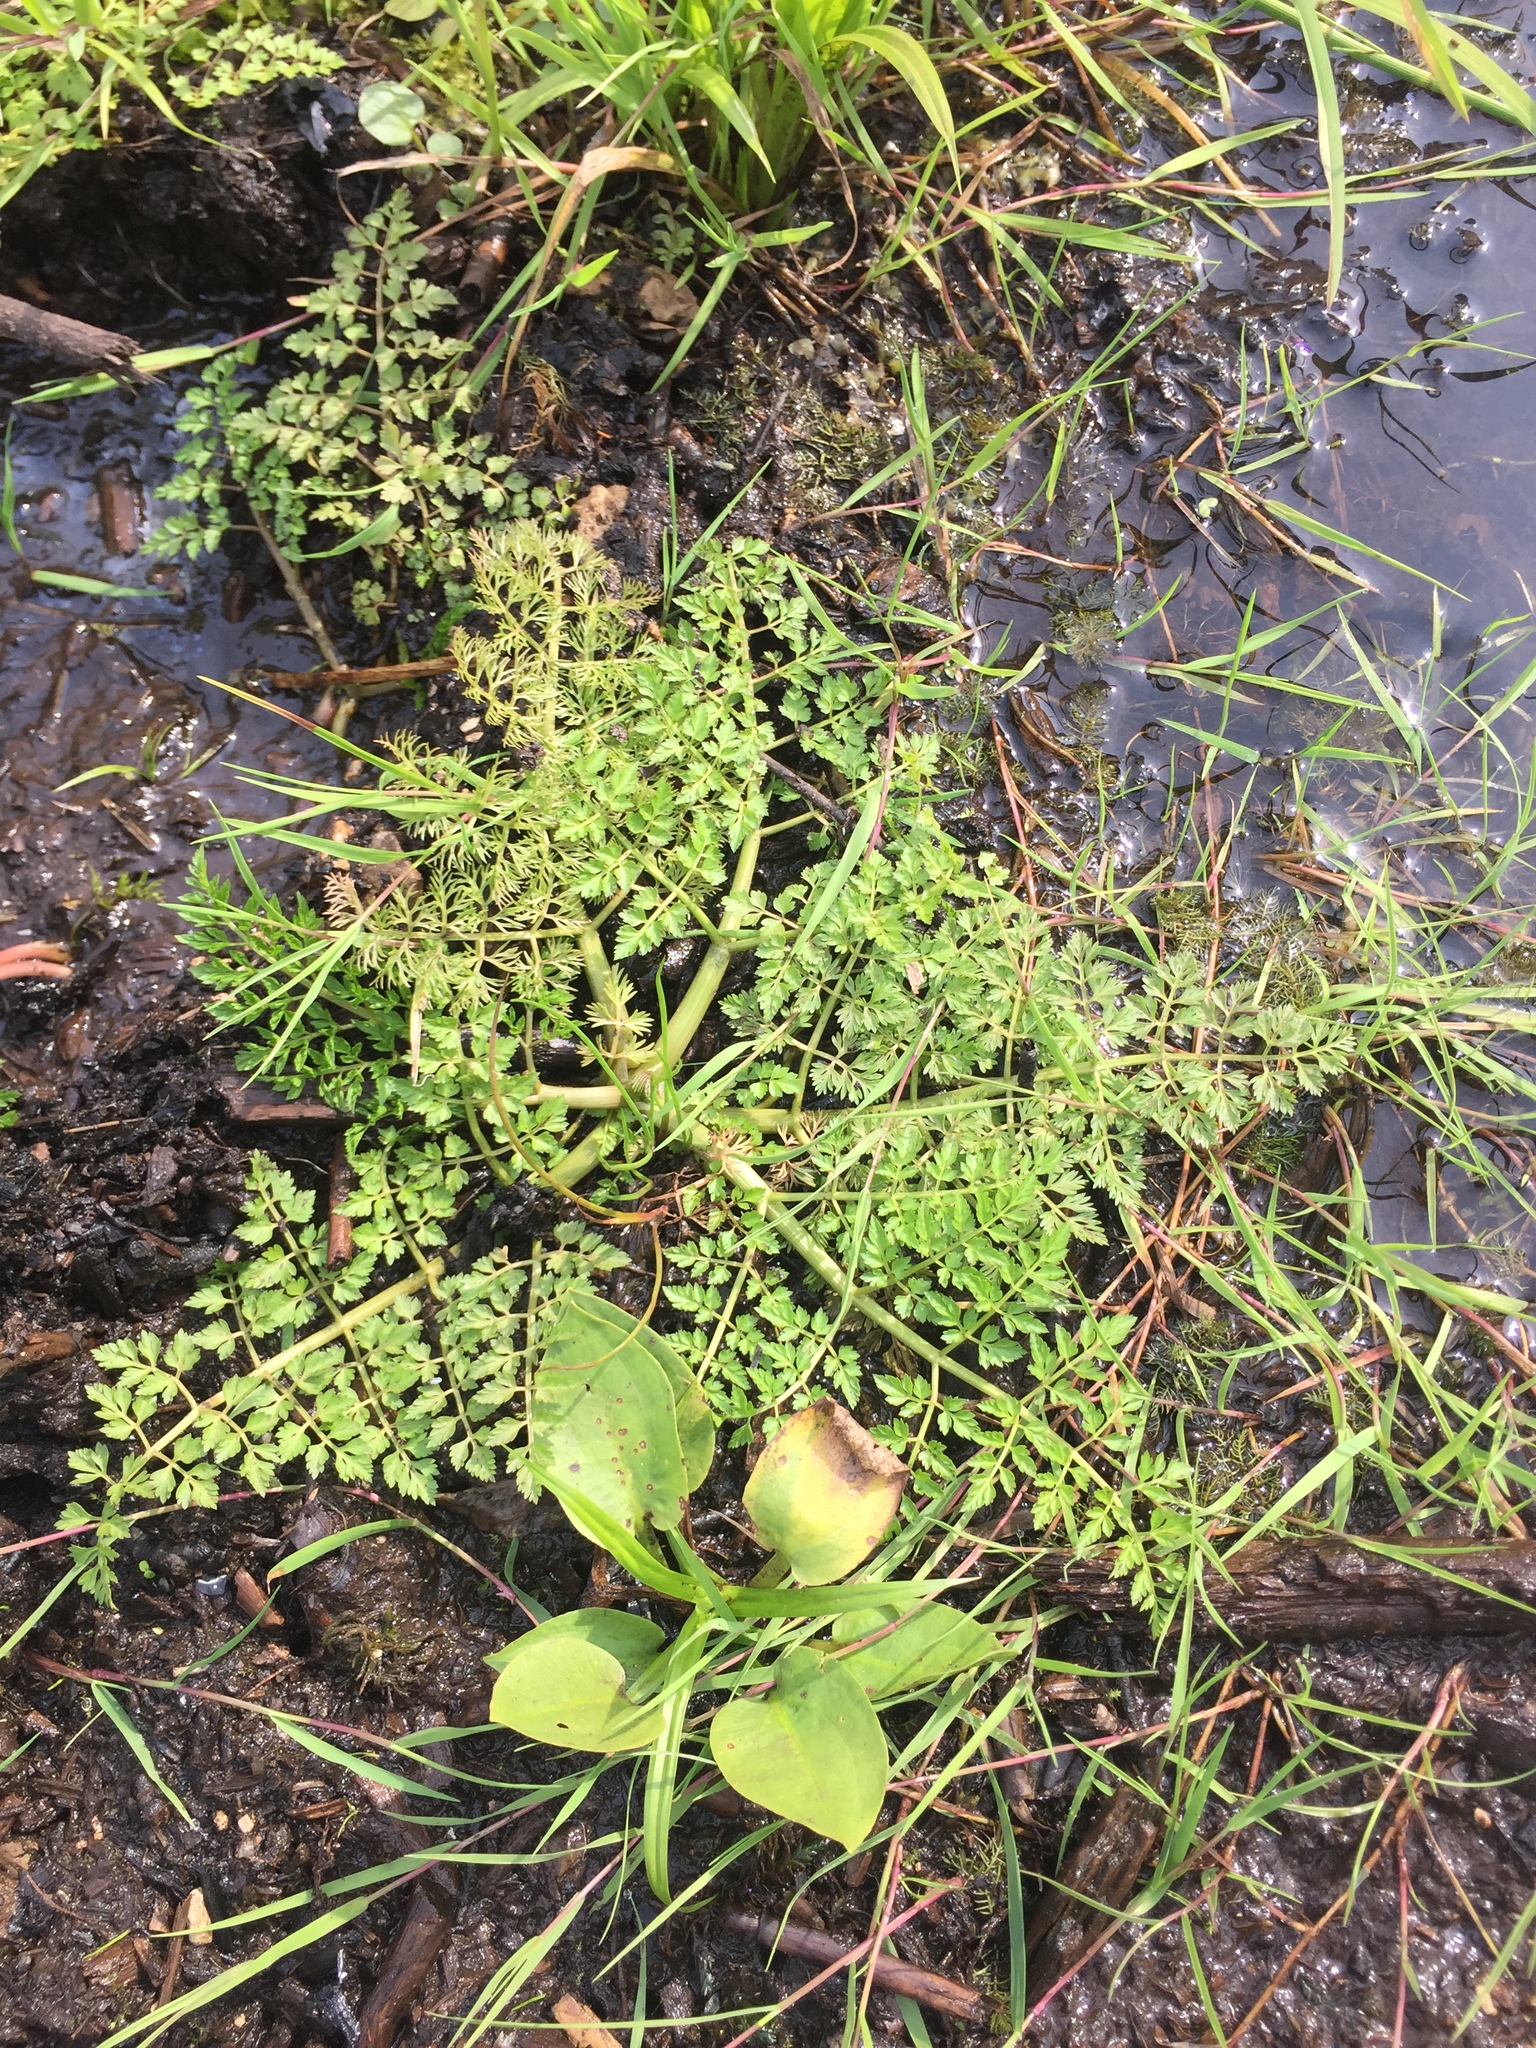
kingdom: Plantae
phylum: Tracheophyta
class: Magnoliopsida
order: Apiales
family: Apiaceae
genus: Oenanthe
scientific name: Oenanthe aquatica
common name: Fine-leaved water-dropwort
